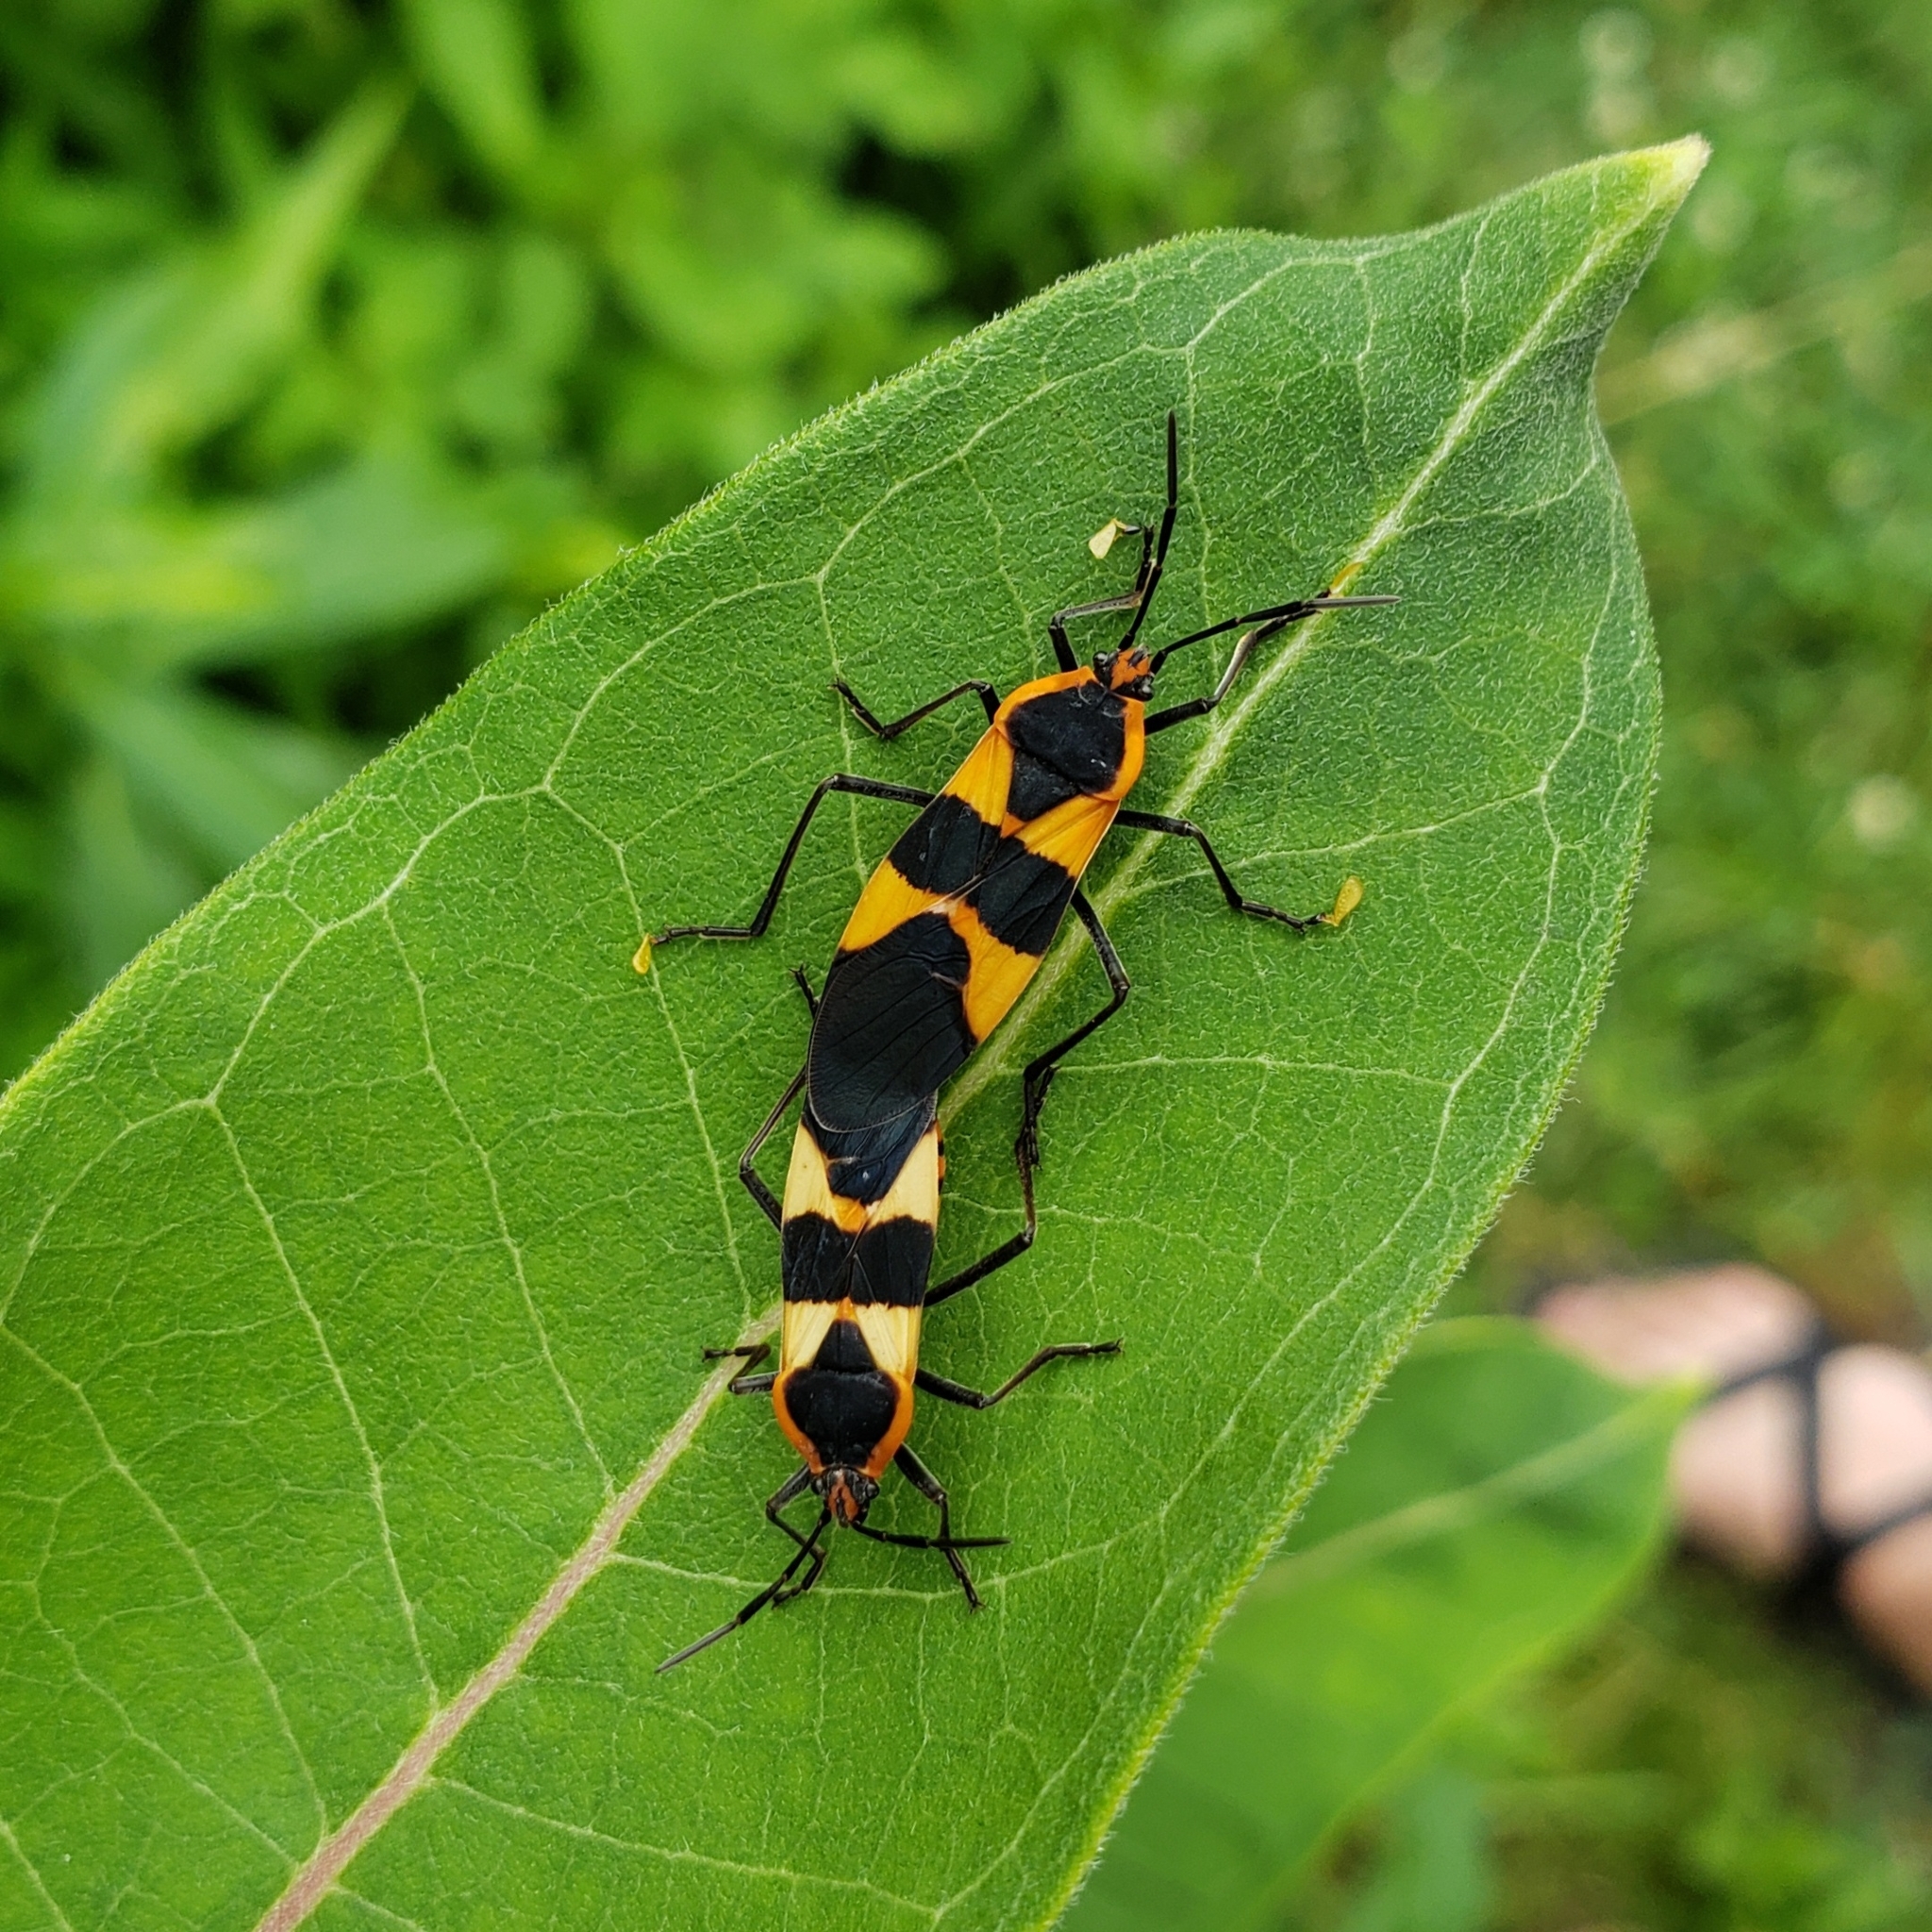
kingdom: Animalia
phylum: Arthropoda
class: Insecta
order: Hemiptera
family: Lygaeidae
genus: Oncopeltus
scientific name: Oncopeltus fasciatus
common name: Large milkweed bug
